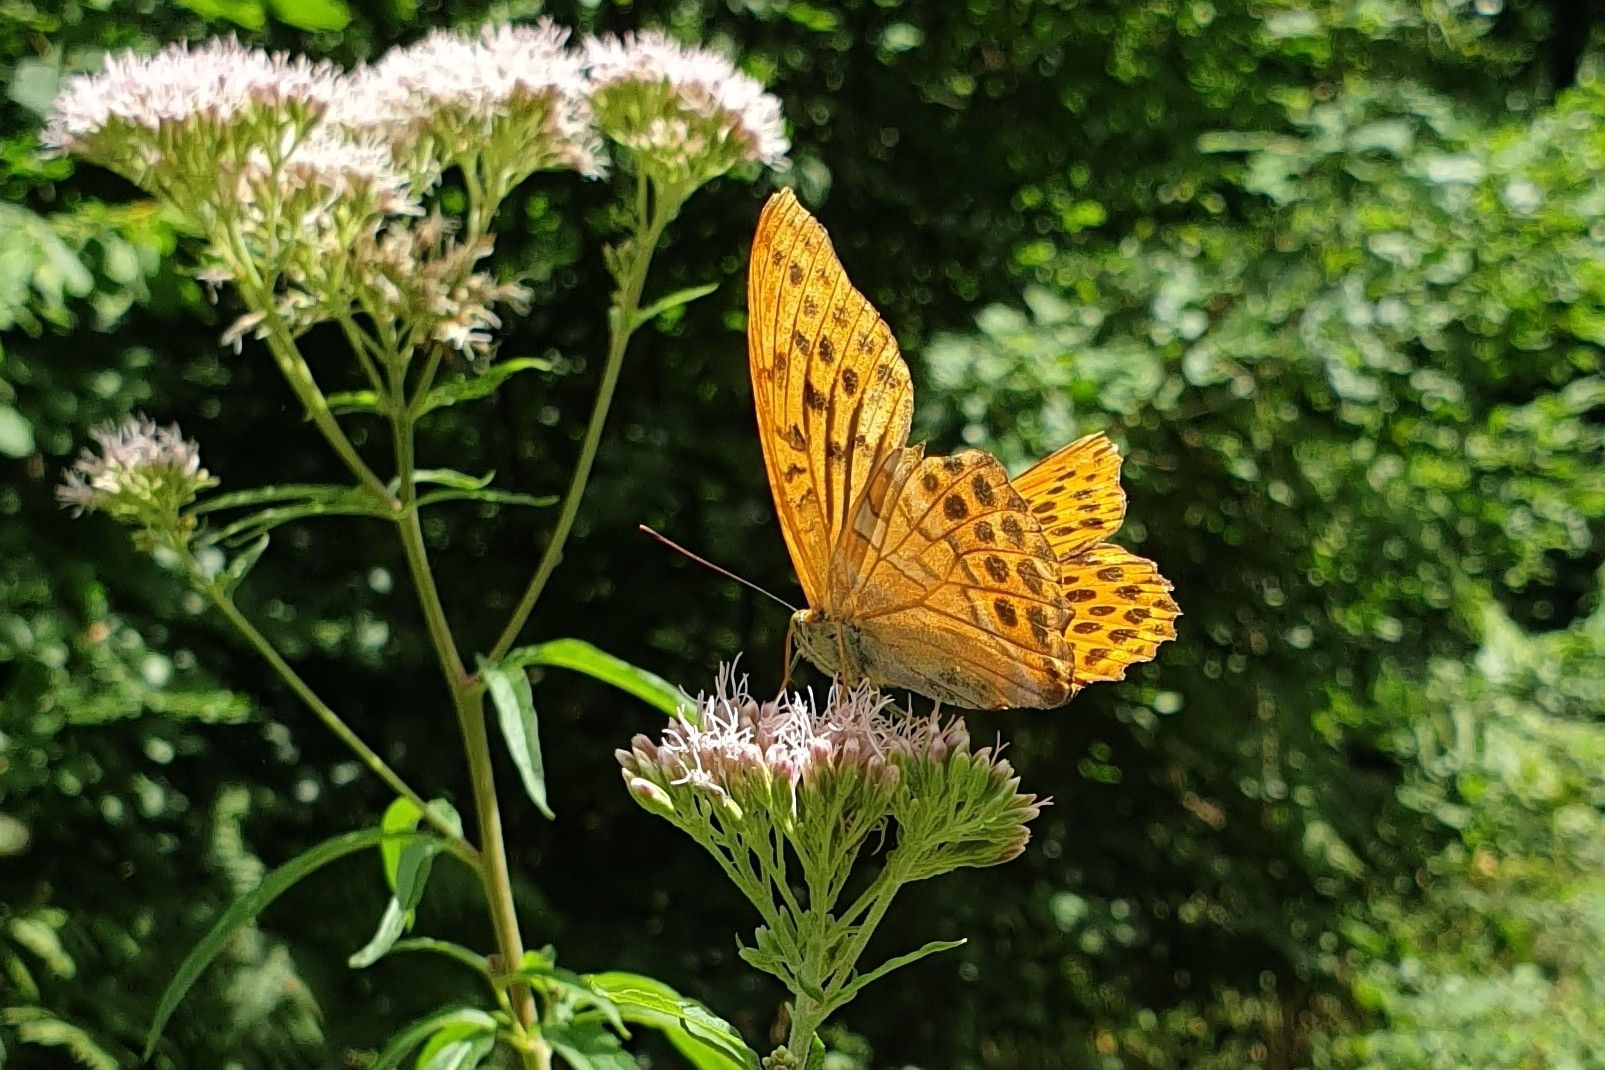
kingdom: Animalia
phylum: Arthropoda
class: Insecta
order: Lepidoptera
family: Nymphalidae
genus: Argynnis
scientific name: Argynnis paphia
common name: Silver-washed fritillary
